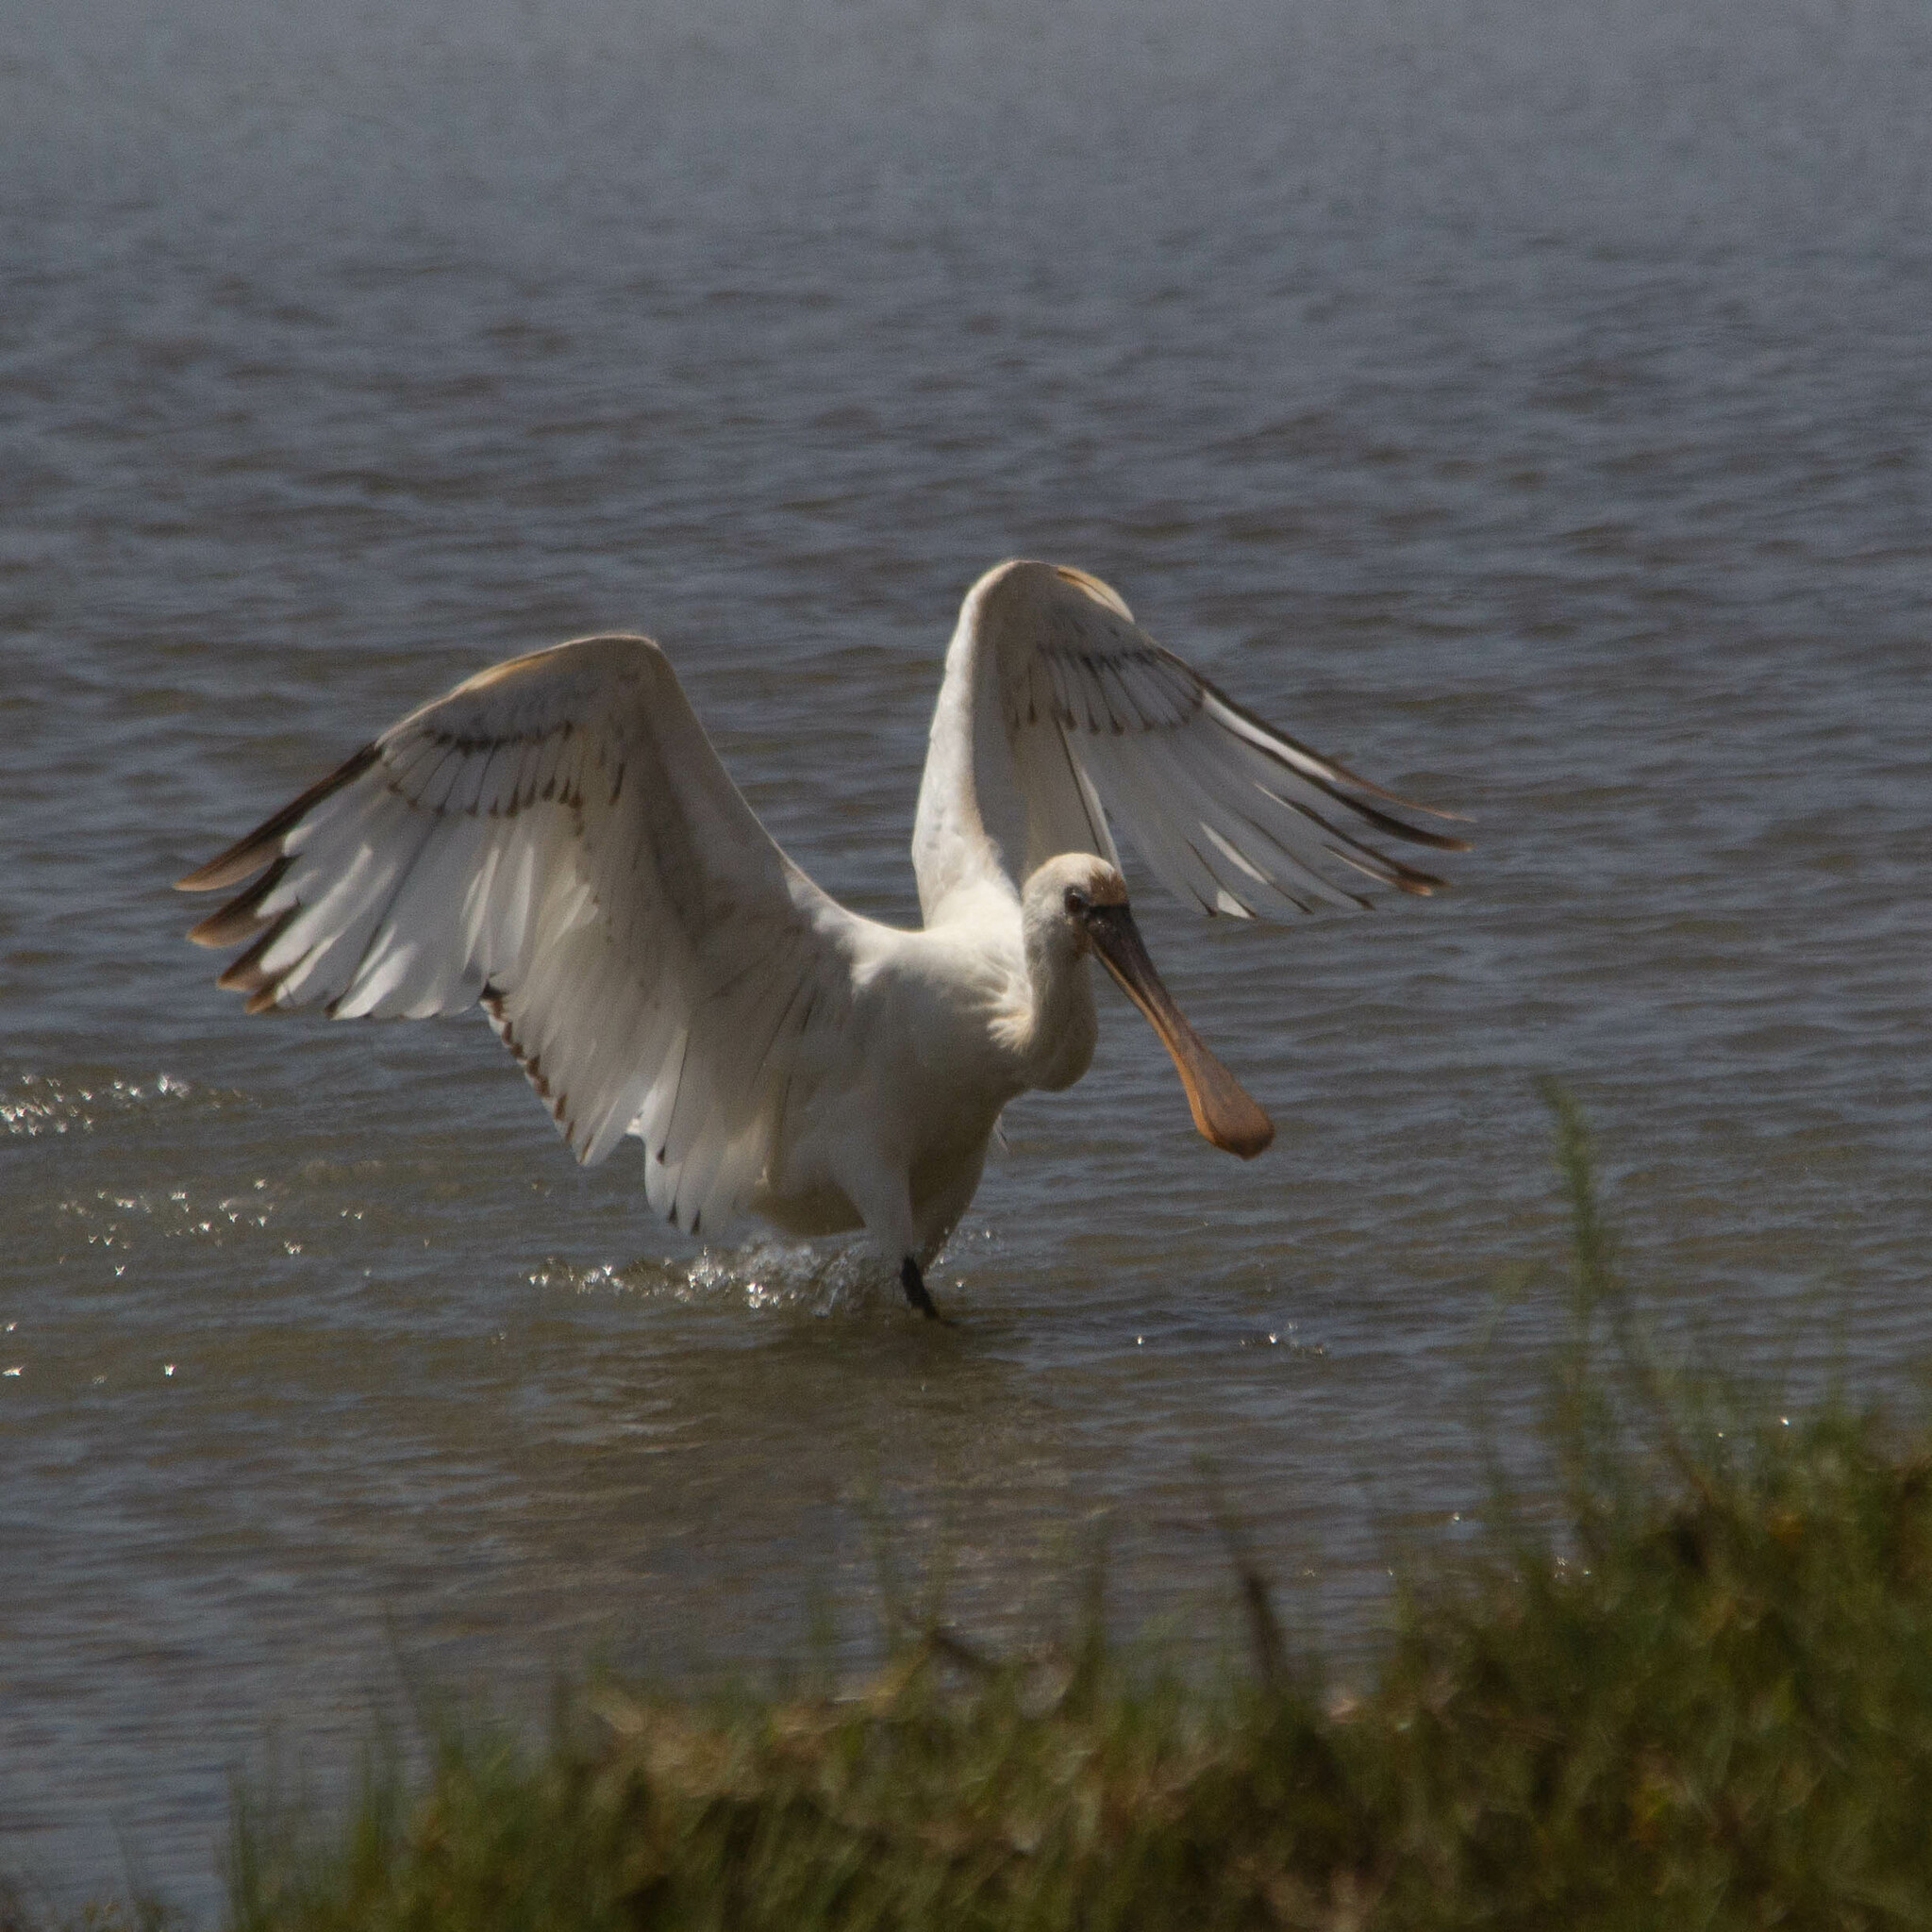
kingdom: Animalia
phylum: Chordata
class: Aves
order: Pelecaniformes
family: Threskiornithidae
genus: Platalea
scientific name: Platalea leucorodia
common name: Eurasian spoonbill
